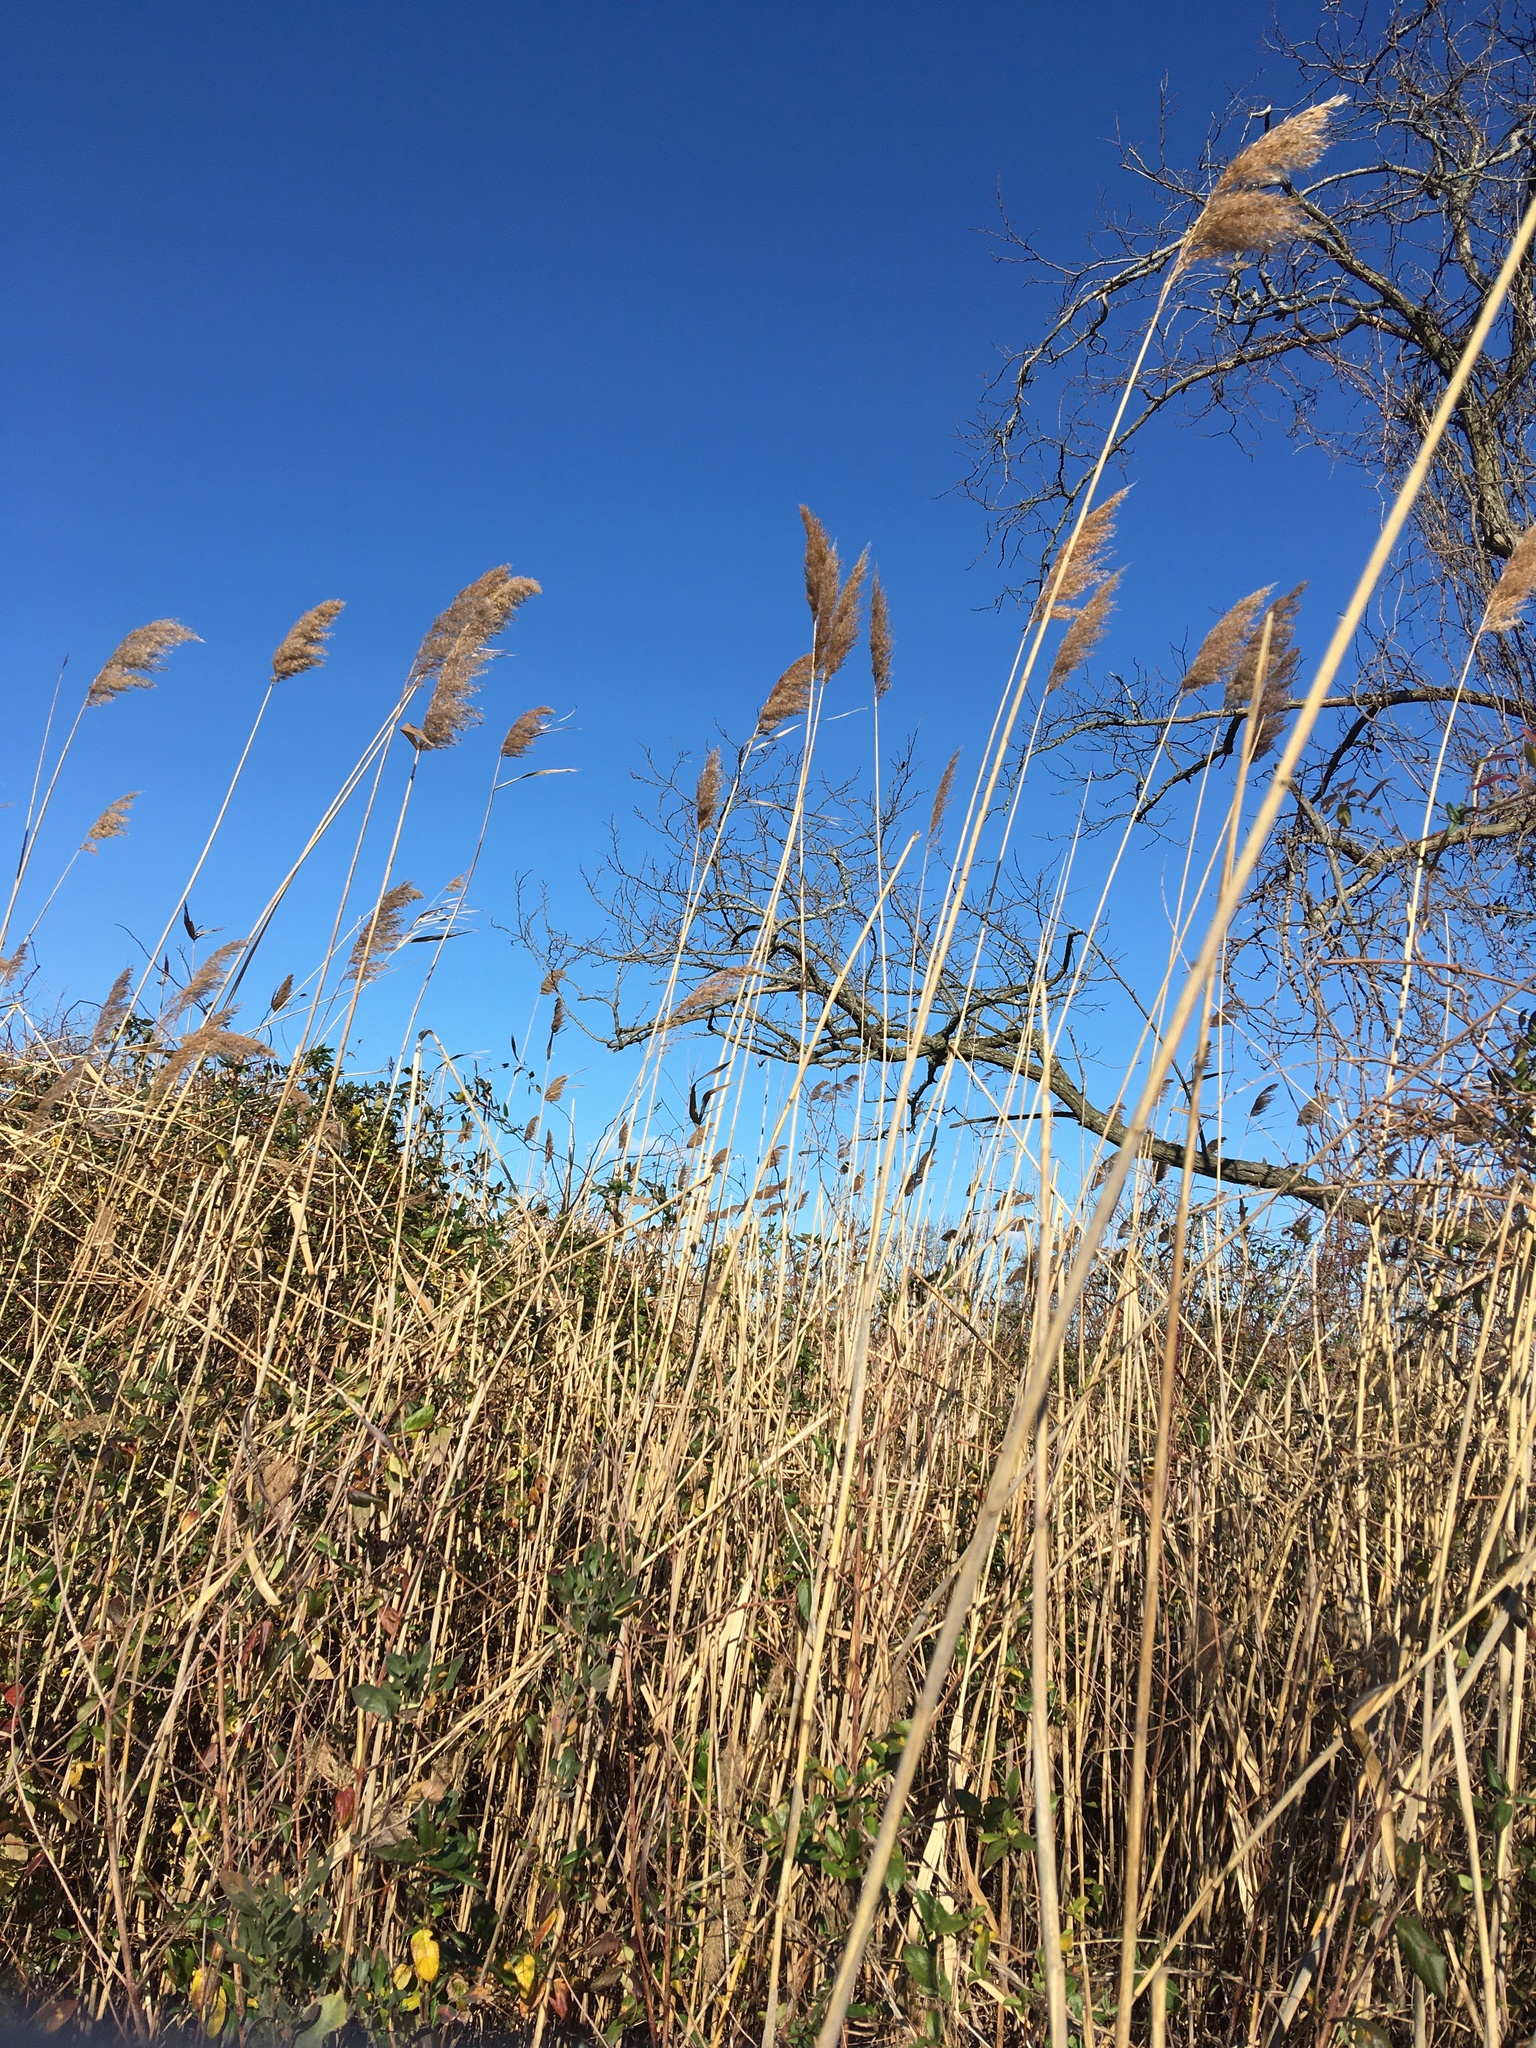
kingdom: Plantae
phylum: Tracheophyta
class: Liliopsida
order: Poales
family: Poaceae
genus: Phragmites
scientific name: Phragmites australis
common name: Common reed
